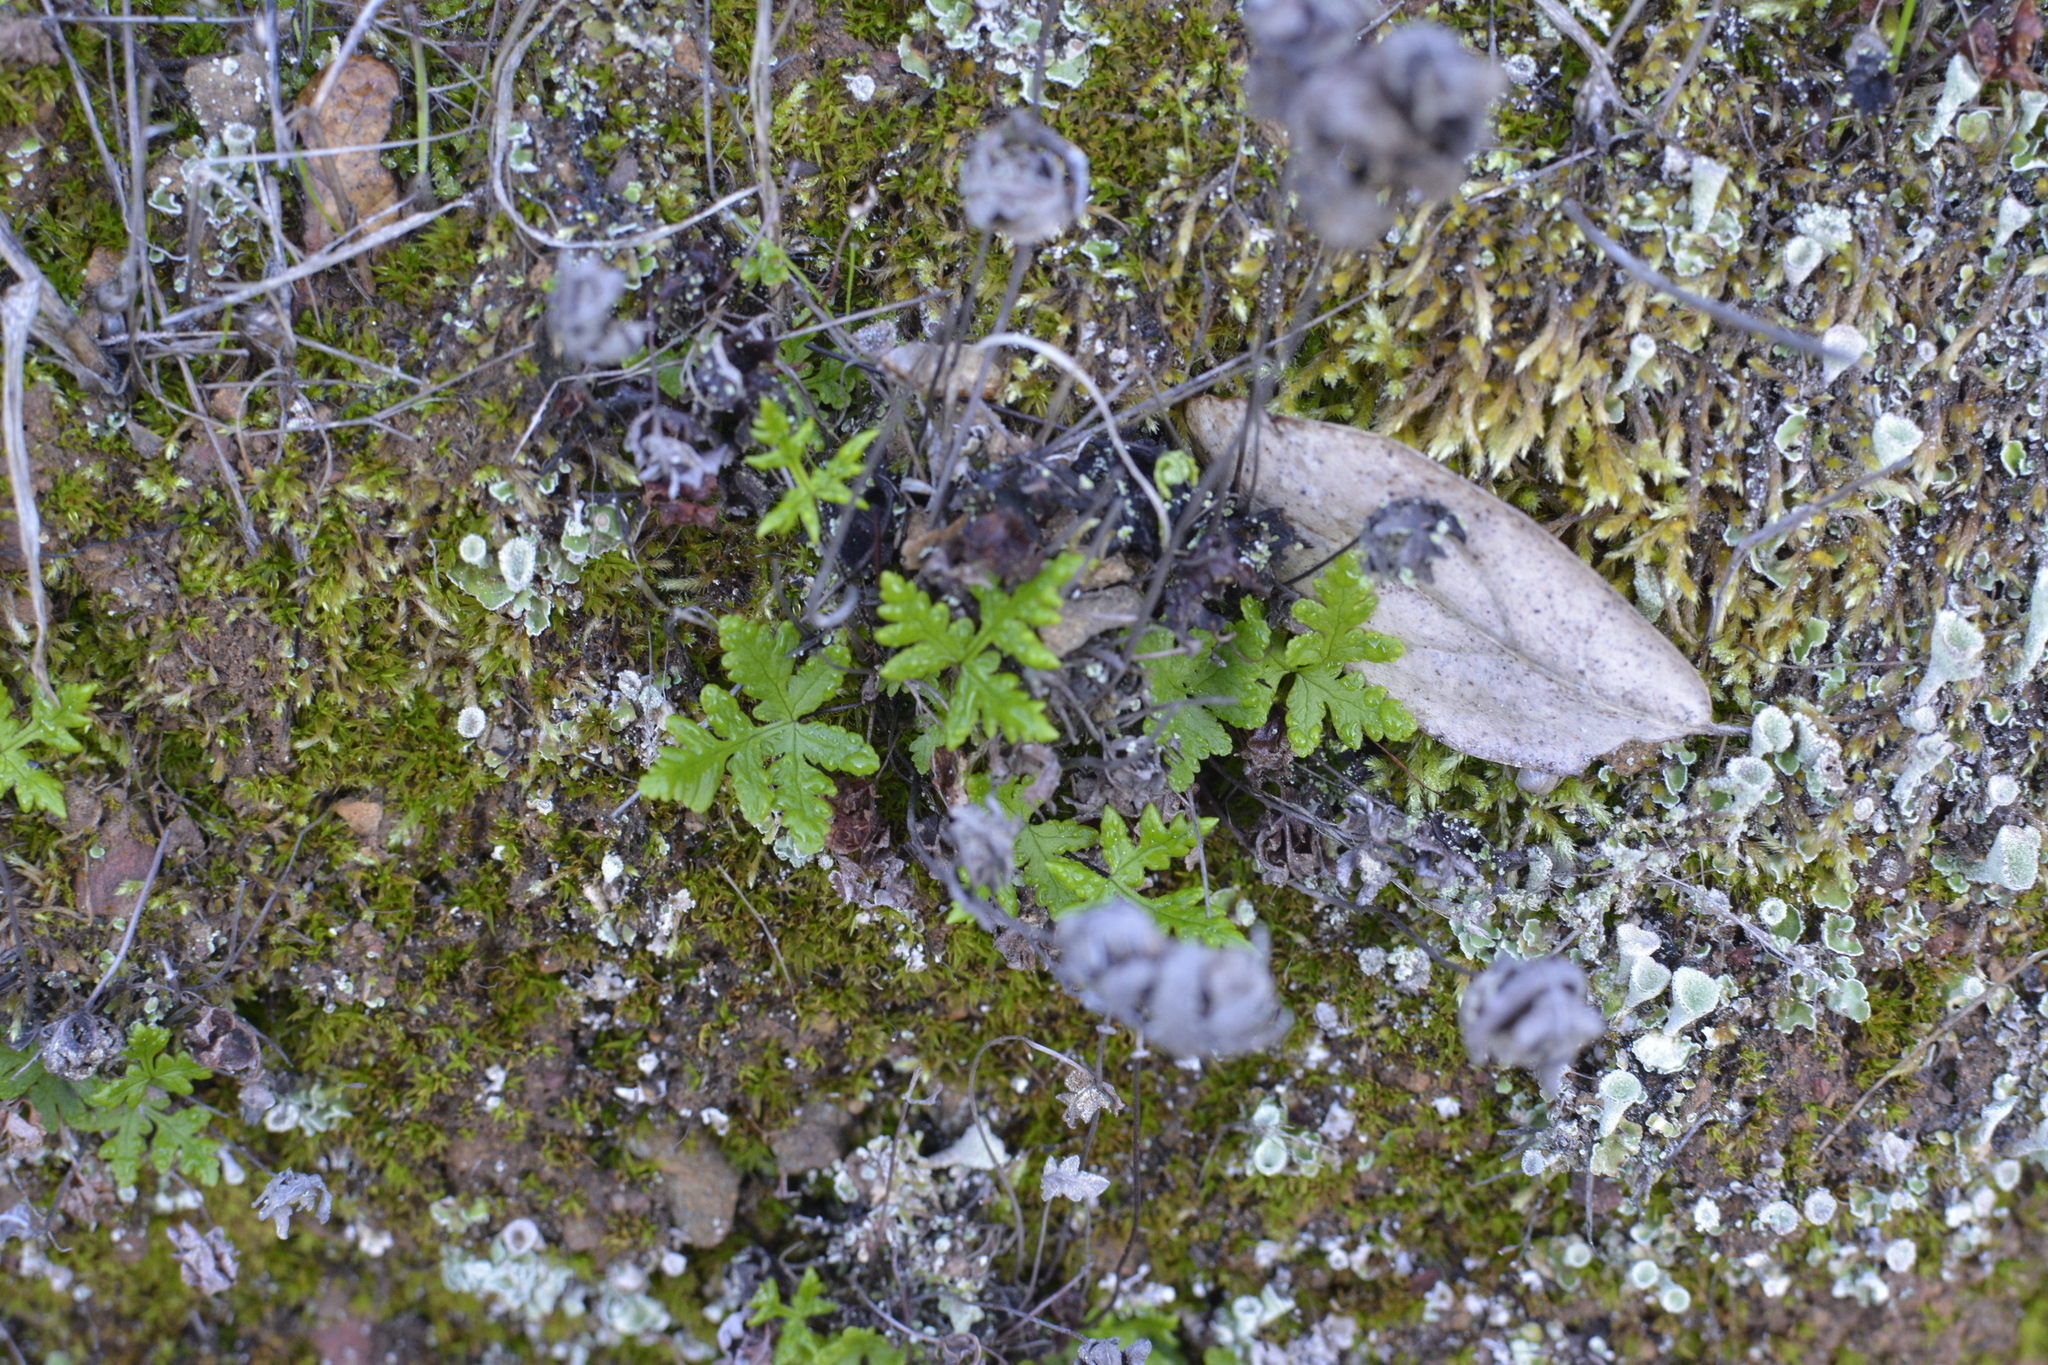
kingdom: Plantae
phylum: Tracheophyta
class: Polypodiopsida
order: Polypodiales
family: Pteridaceae
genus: Pentagramma
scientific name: Pentagramma triangularis
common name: Gold fern
